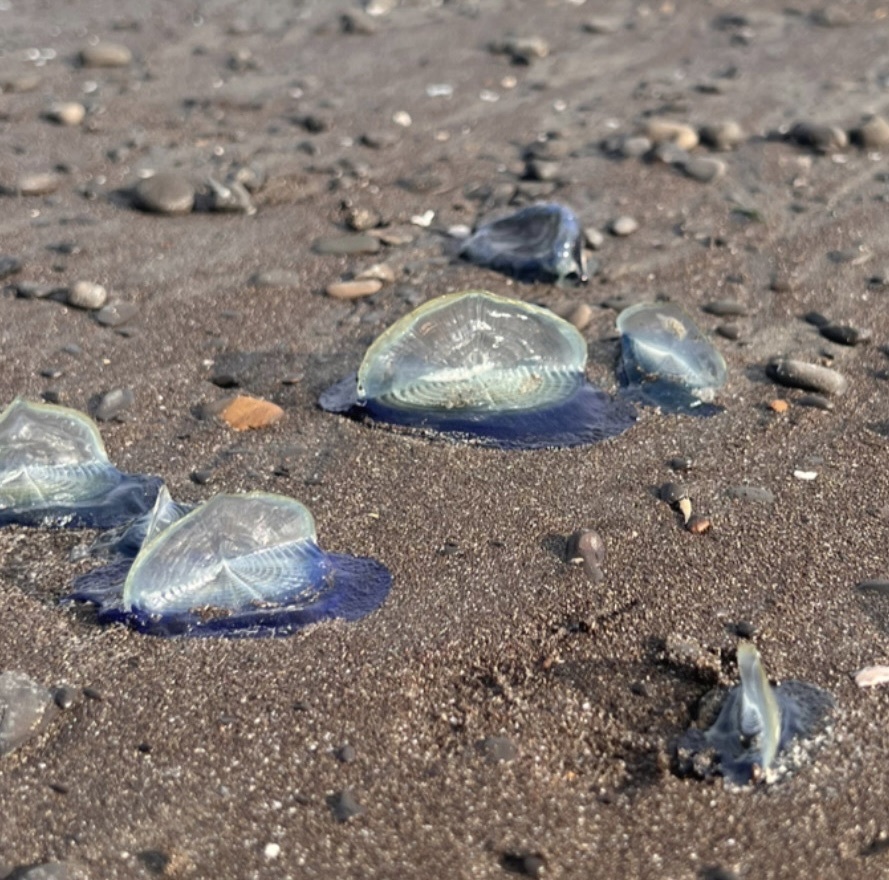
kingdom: Animalia
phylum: Cnidaria
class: Hydrozoa
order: Anthoathecata
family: Porpitidae
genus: Velella
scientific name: Velella velella
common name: By-the-wind-sailor
